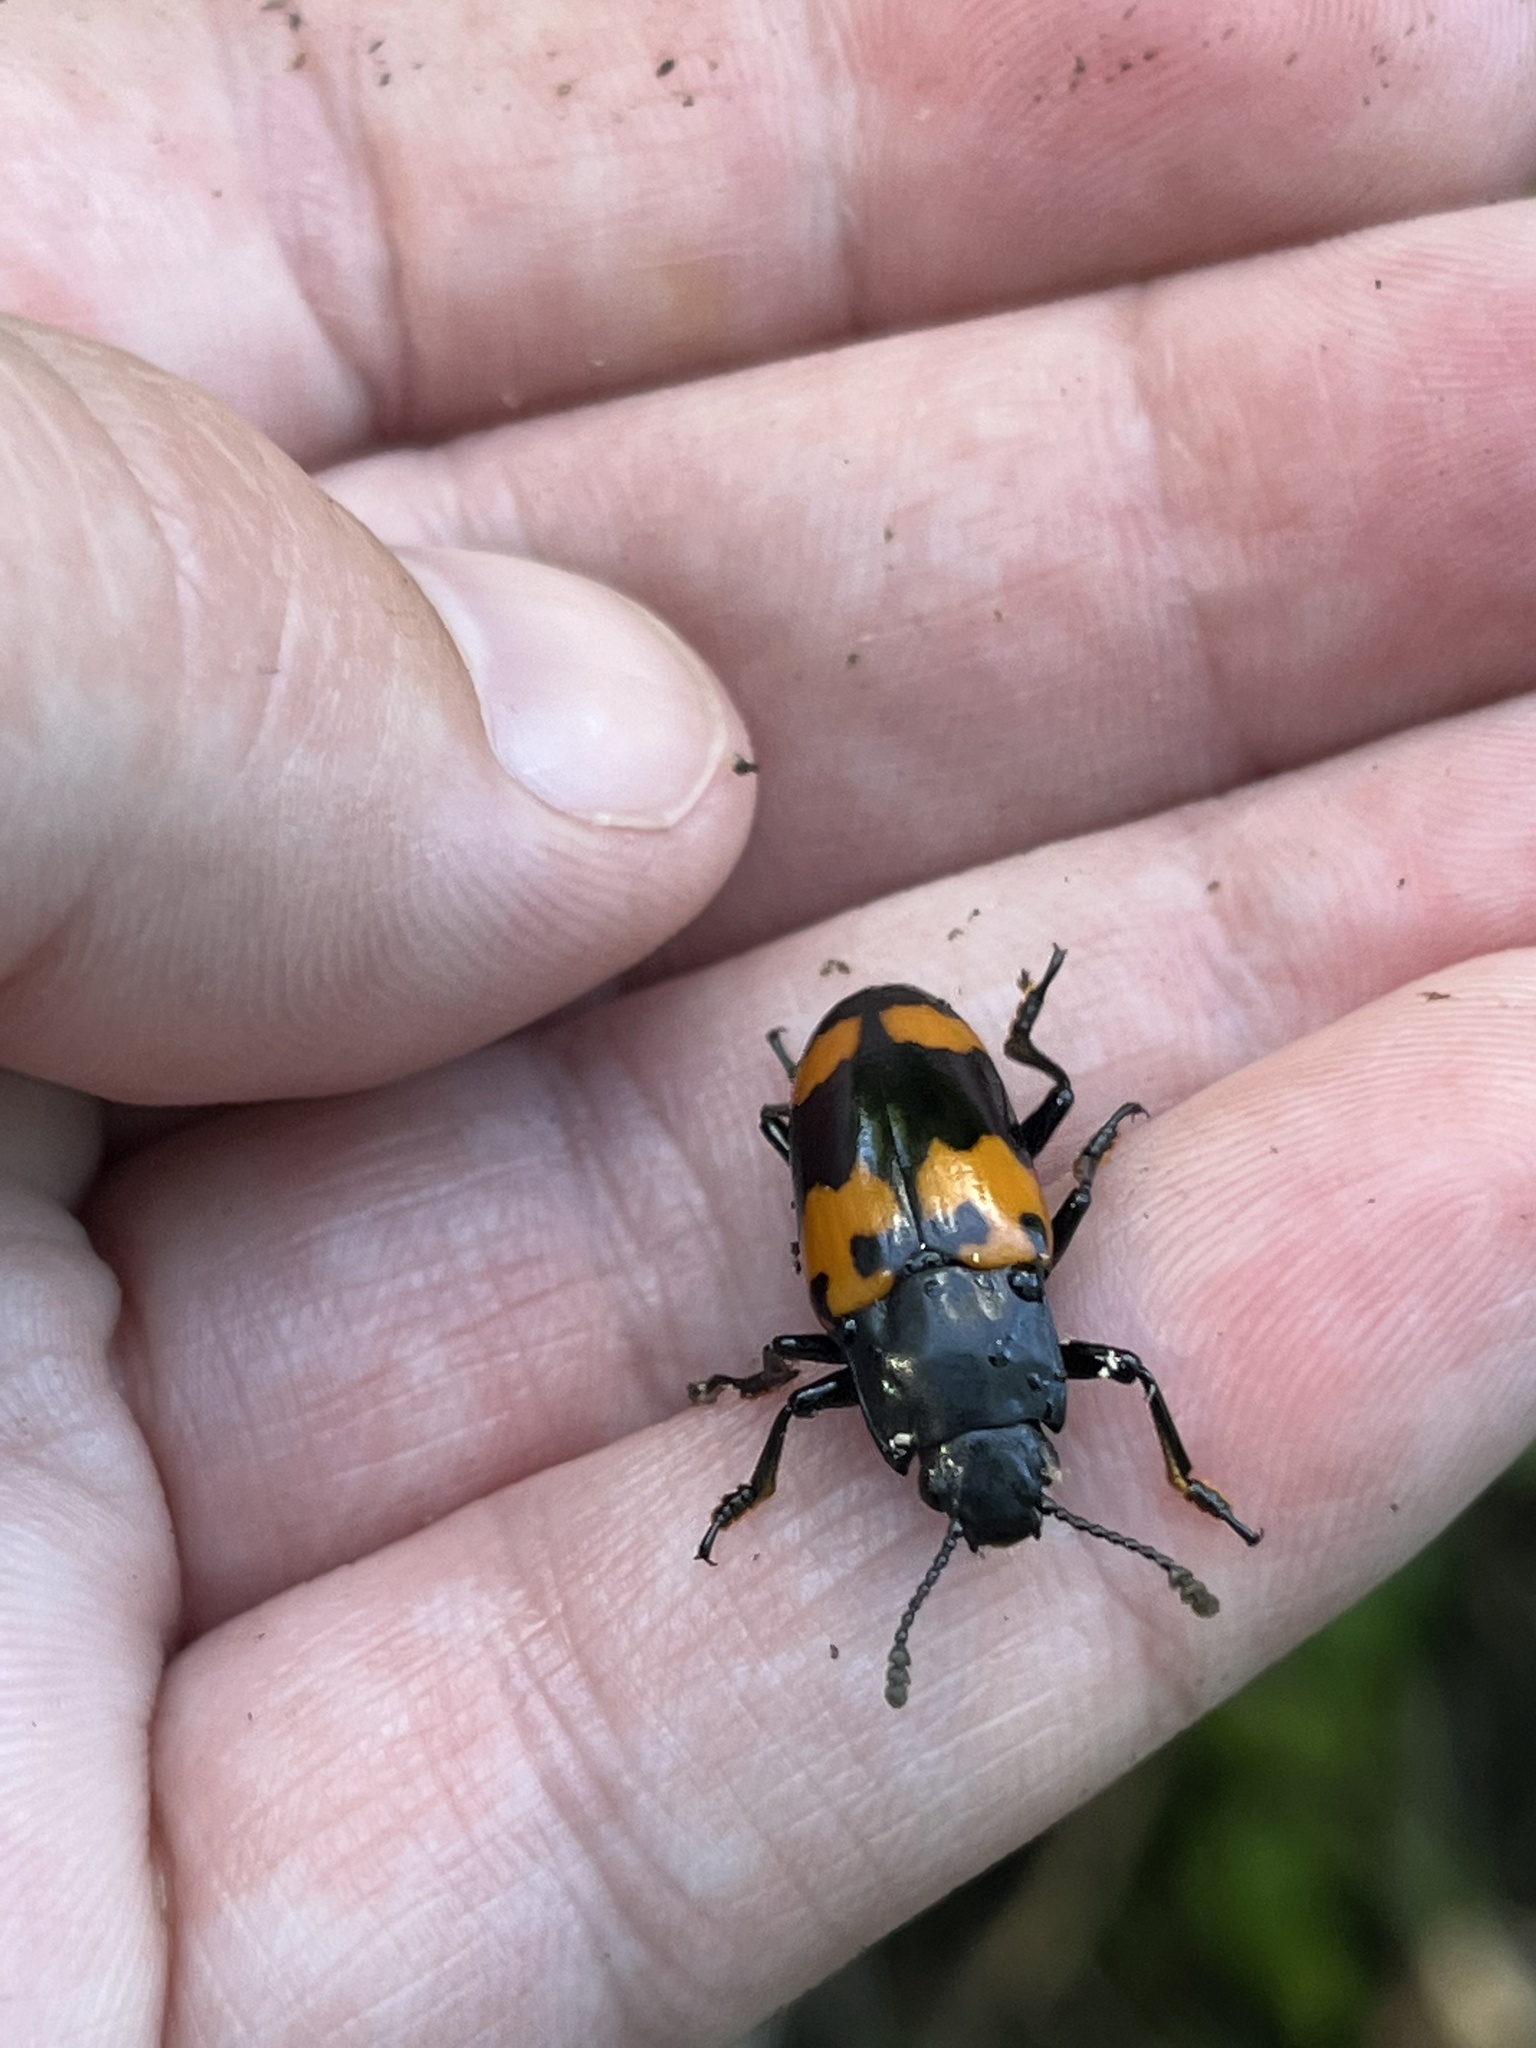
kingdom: Animalia
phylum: Arthropoda
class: Insecta
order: Coleoptera
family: Erotylidae
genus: Megalodacne
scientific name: Megalodacne heros
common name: Pleasing fungus beetle
